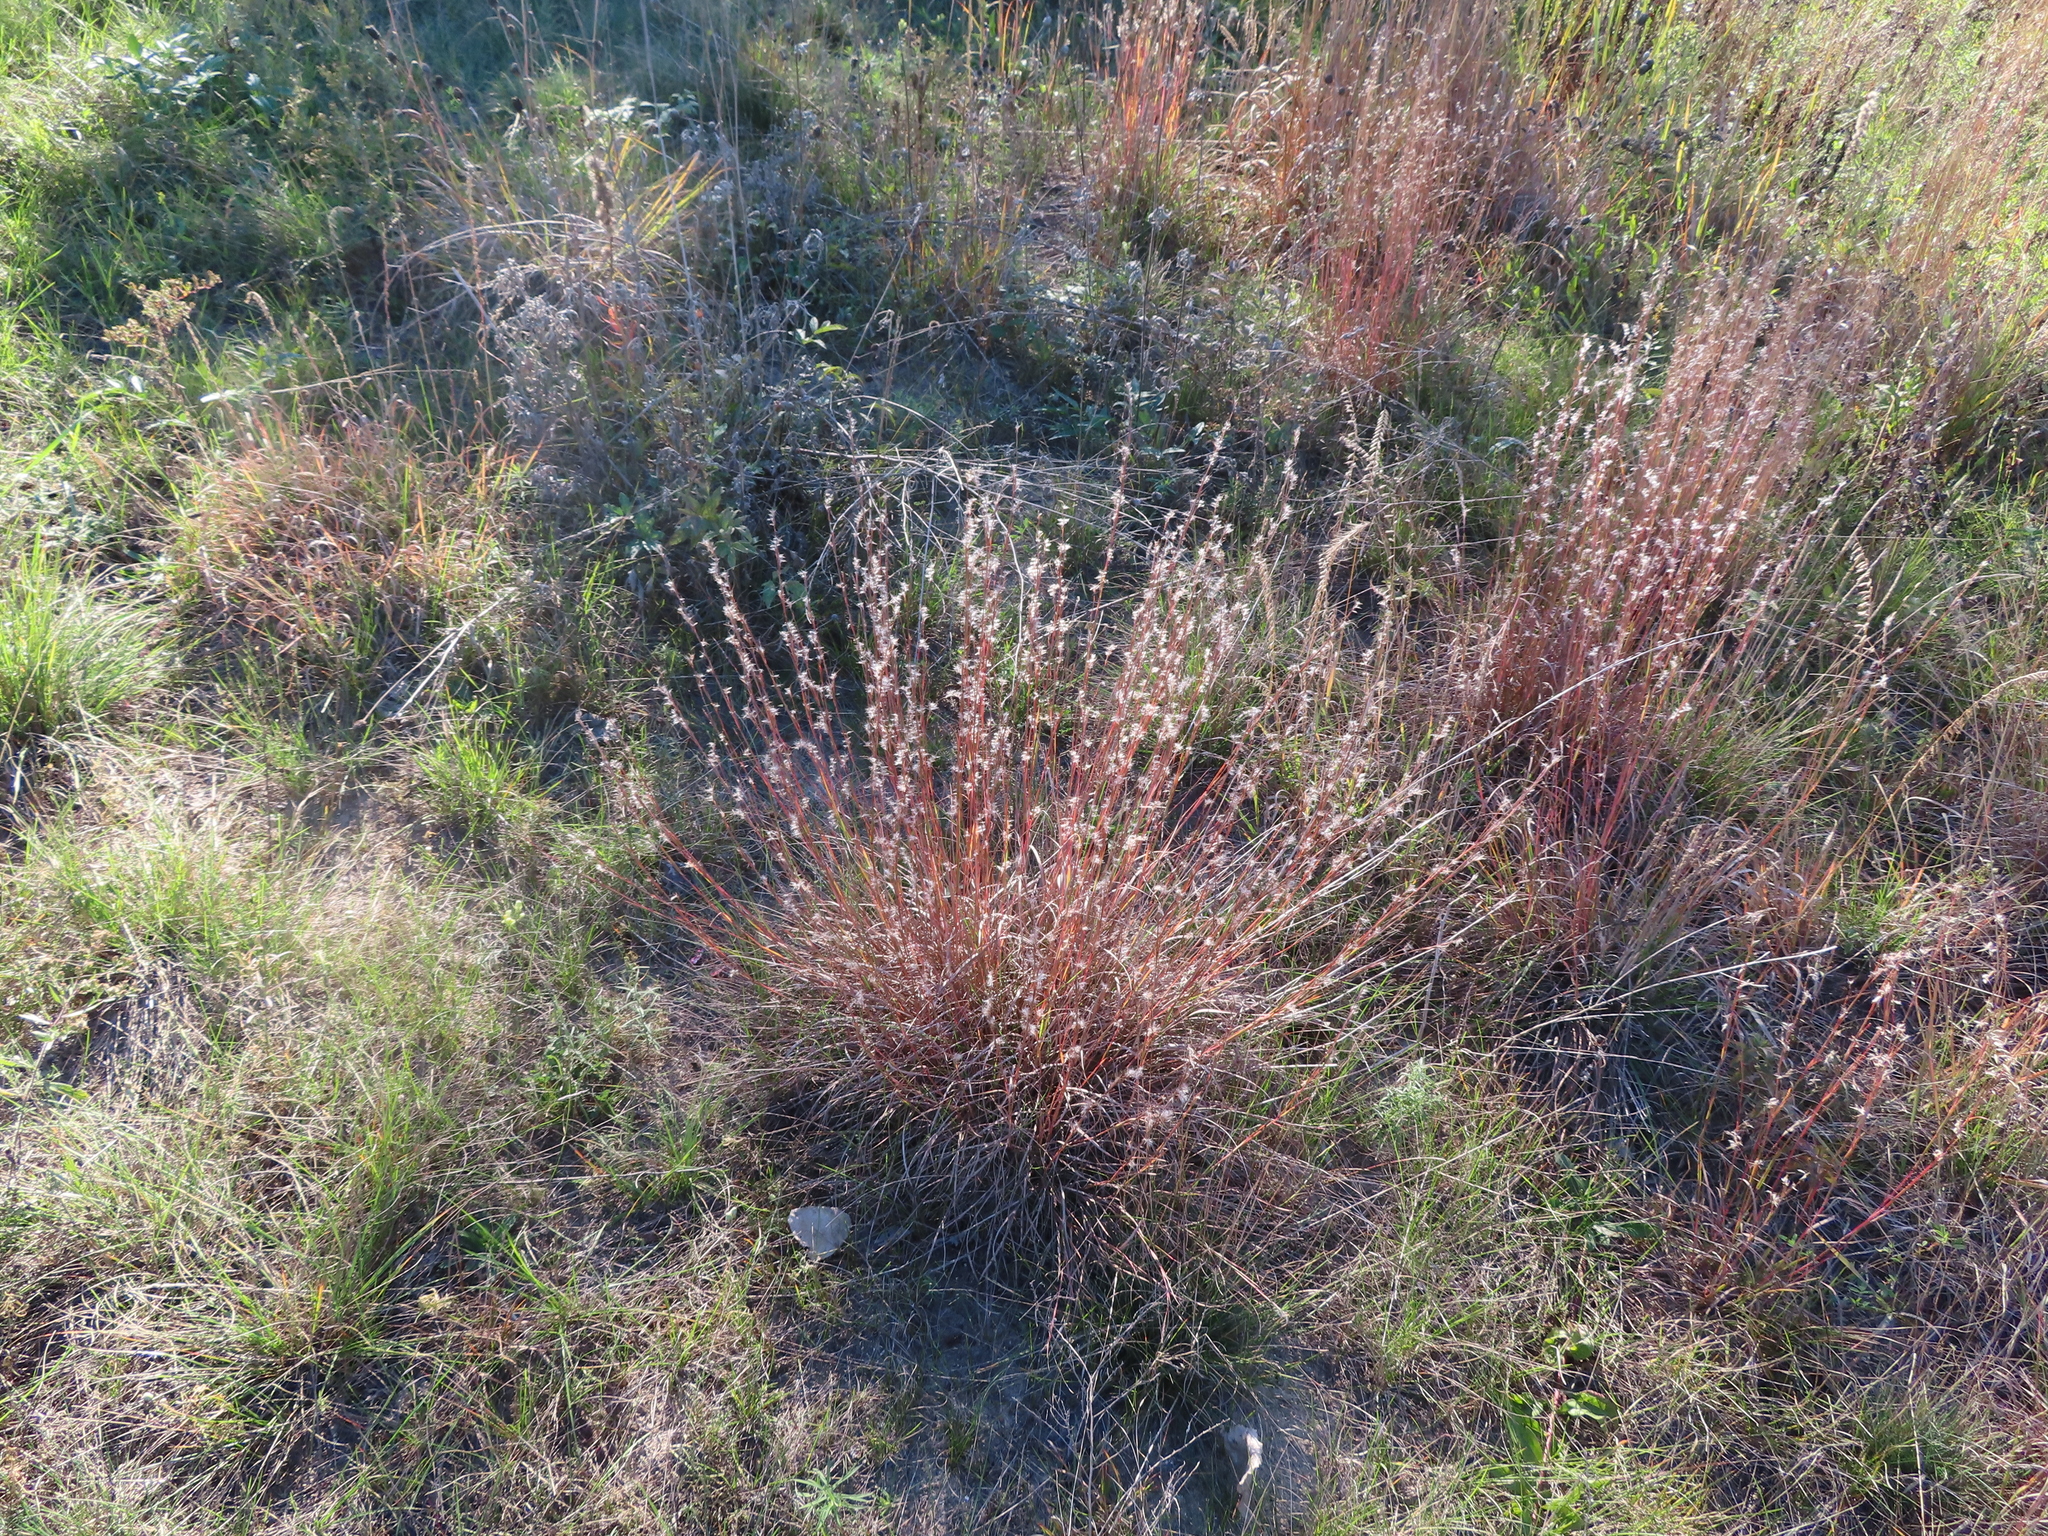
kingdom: Plantae
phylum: Tracheophyta
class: Liliopsida
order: Poales
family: Poaceae
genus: Schizachyrium
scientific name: Schizachyrium scoparium
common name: Little bluestem
